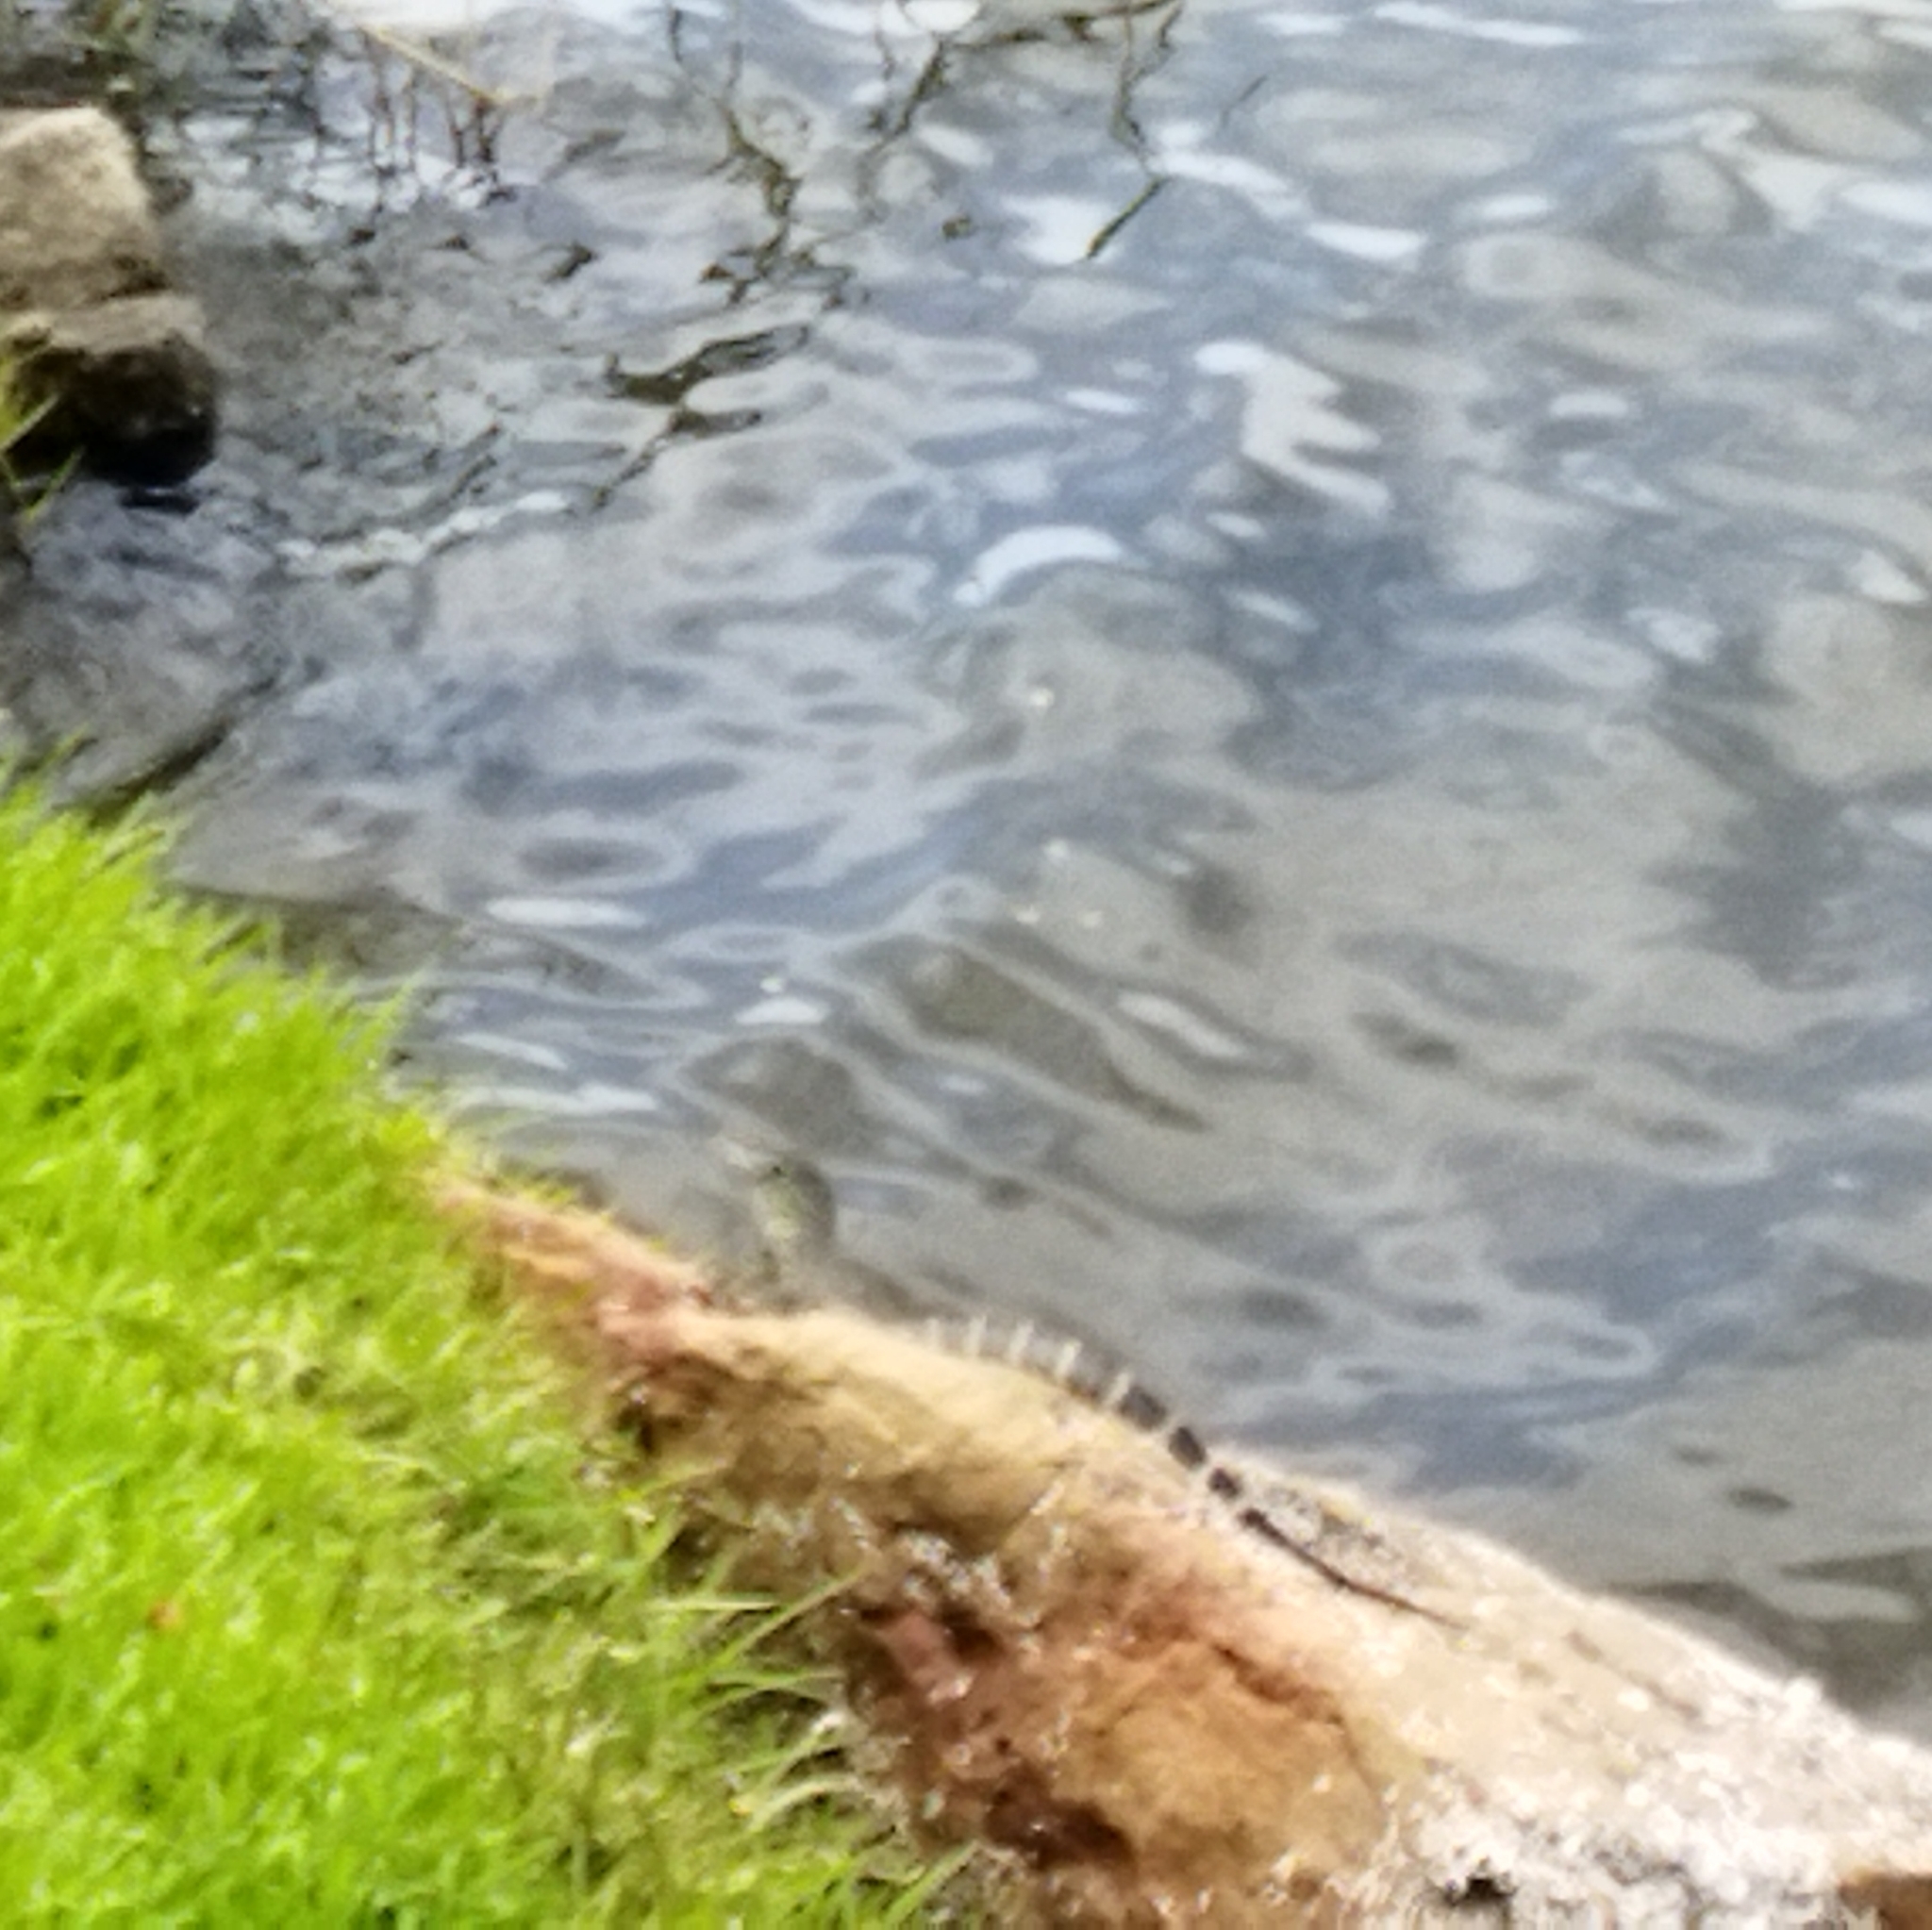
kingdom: Animalia
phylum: Chordata
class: Squamata
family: Varanidae
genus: Varanus
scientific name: Varanus niloticus
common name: Nile monitor
